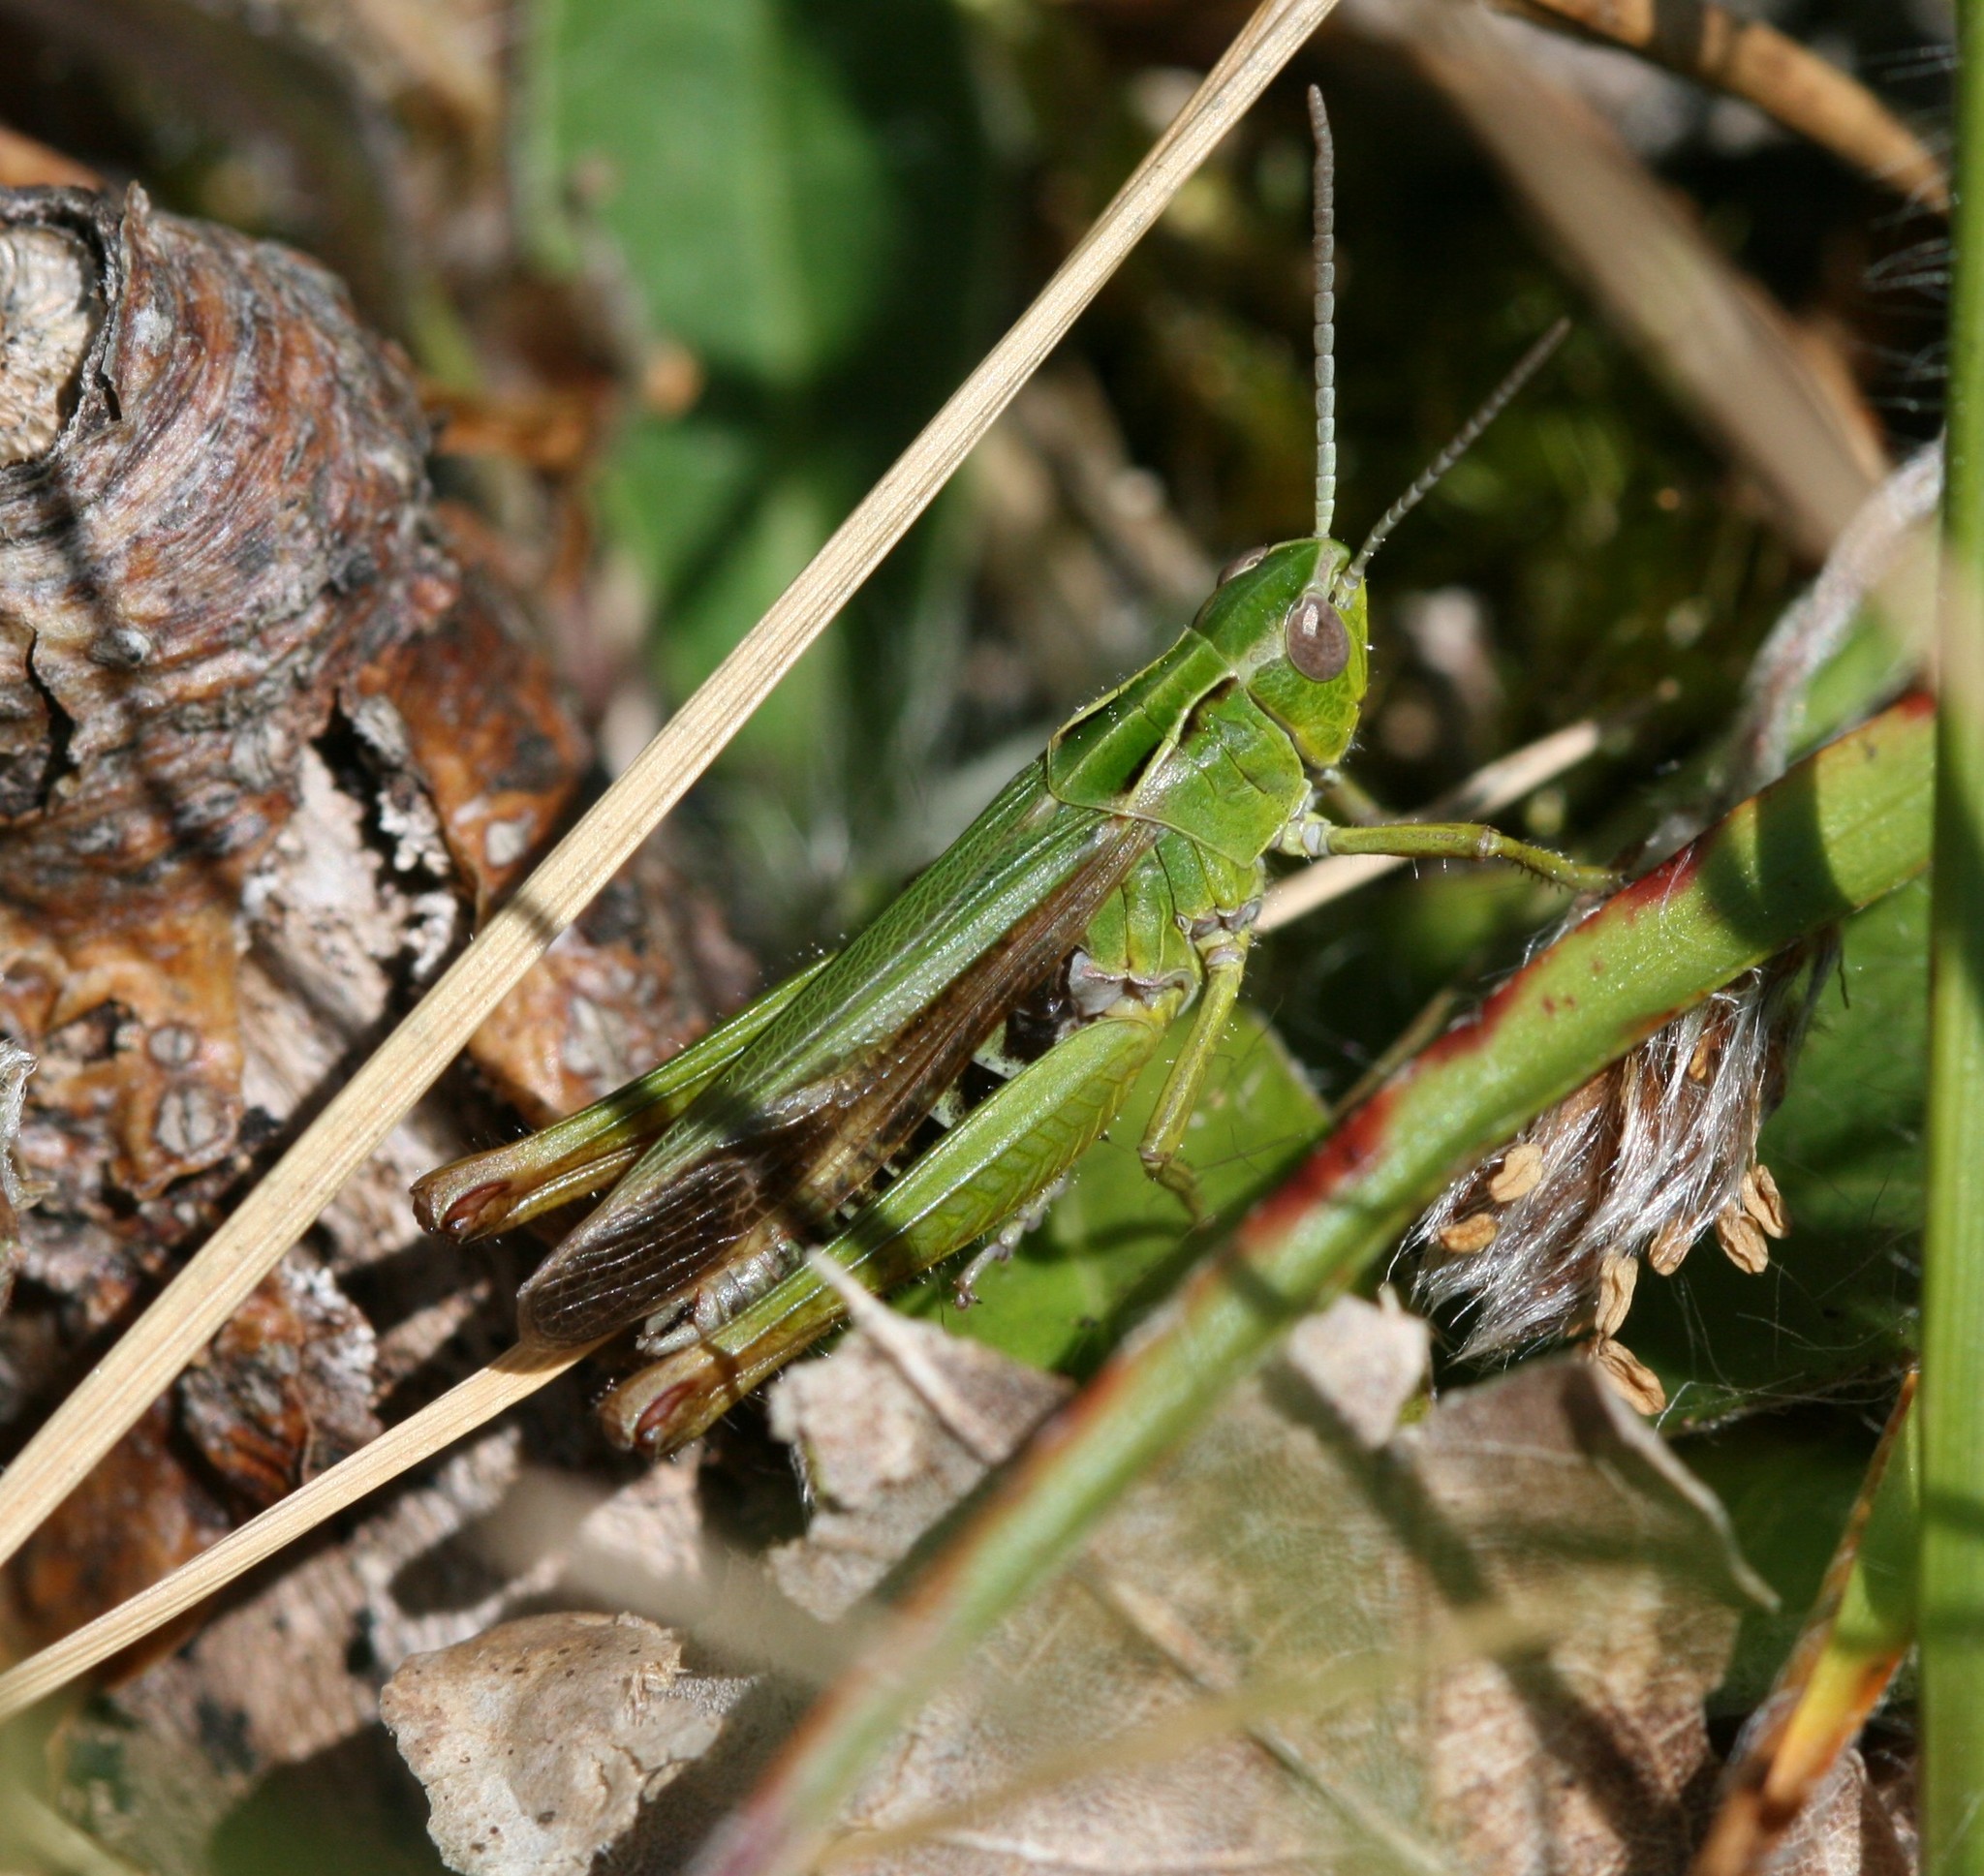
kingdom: Animalia
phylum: Arthropoda
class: Insecta
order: Orthoptera
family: Acrididae
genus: Omocestus
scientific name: Omocestus viridulus
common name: Common green grasshopper
